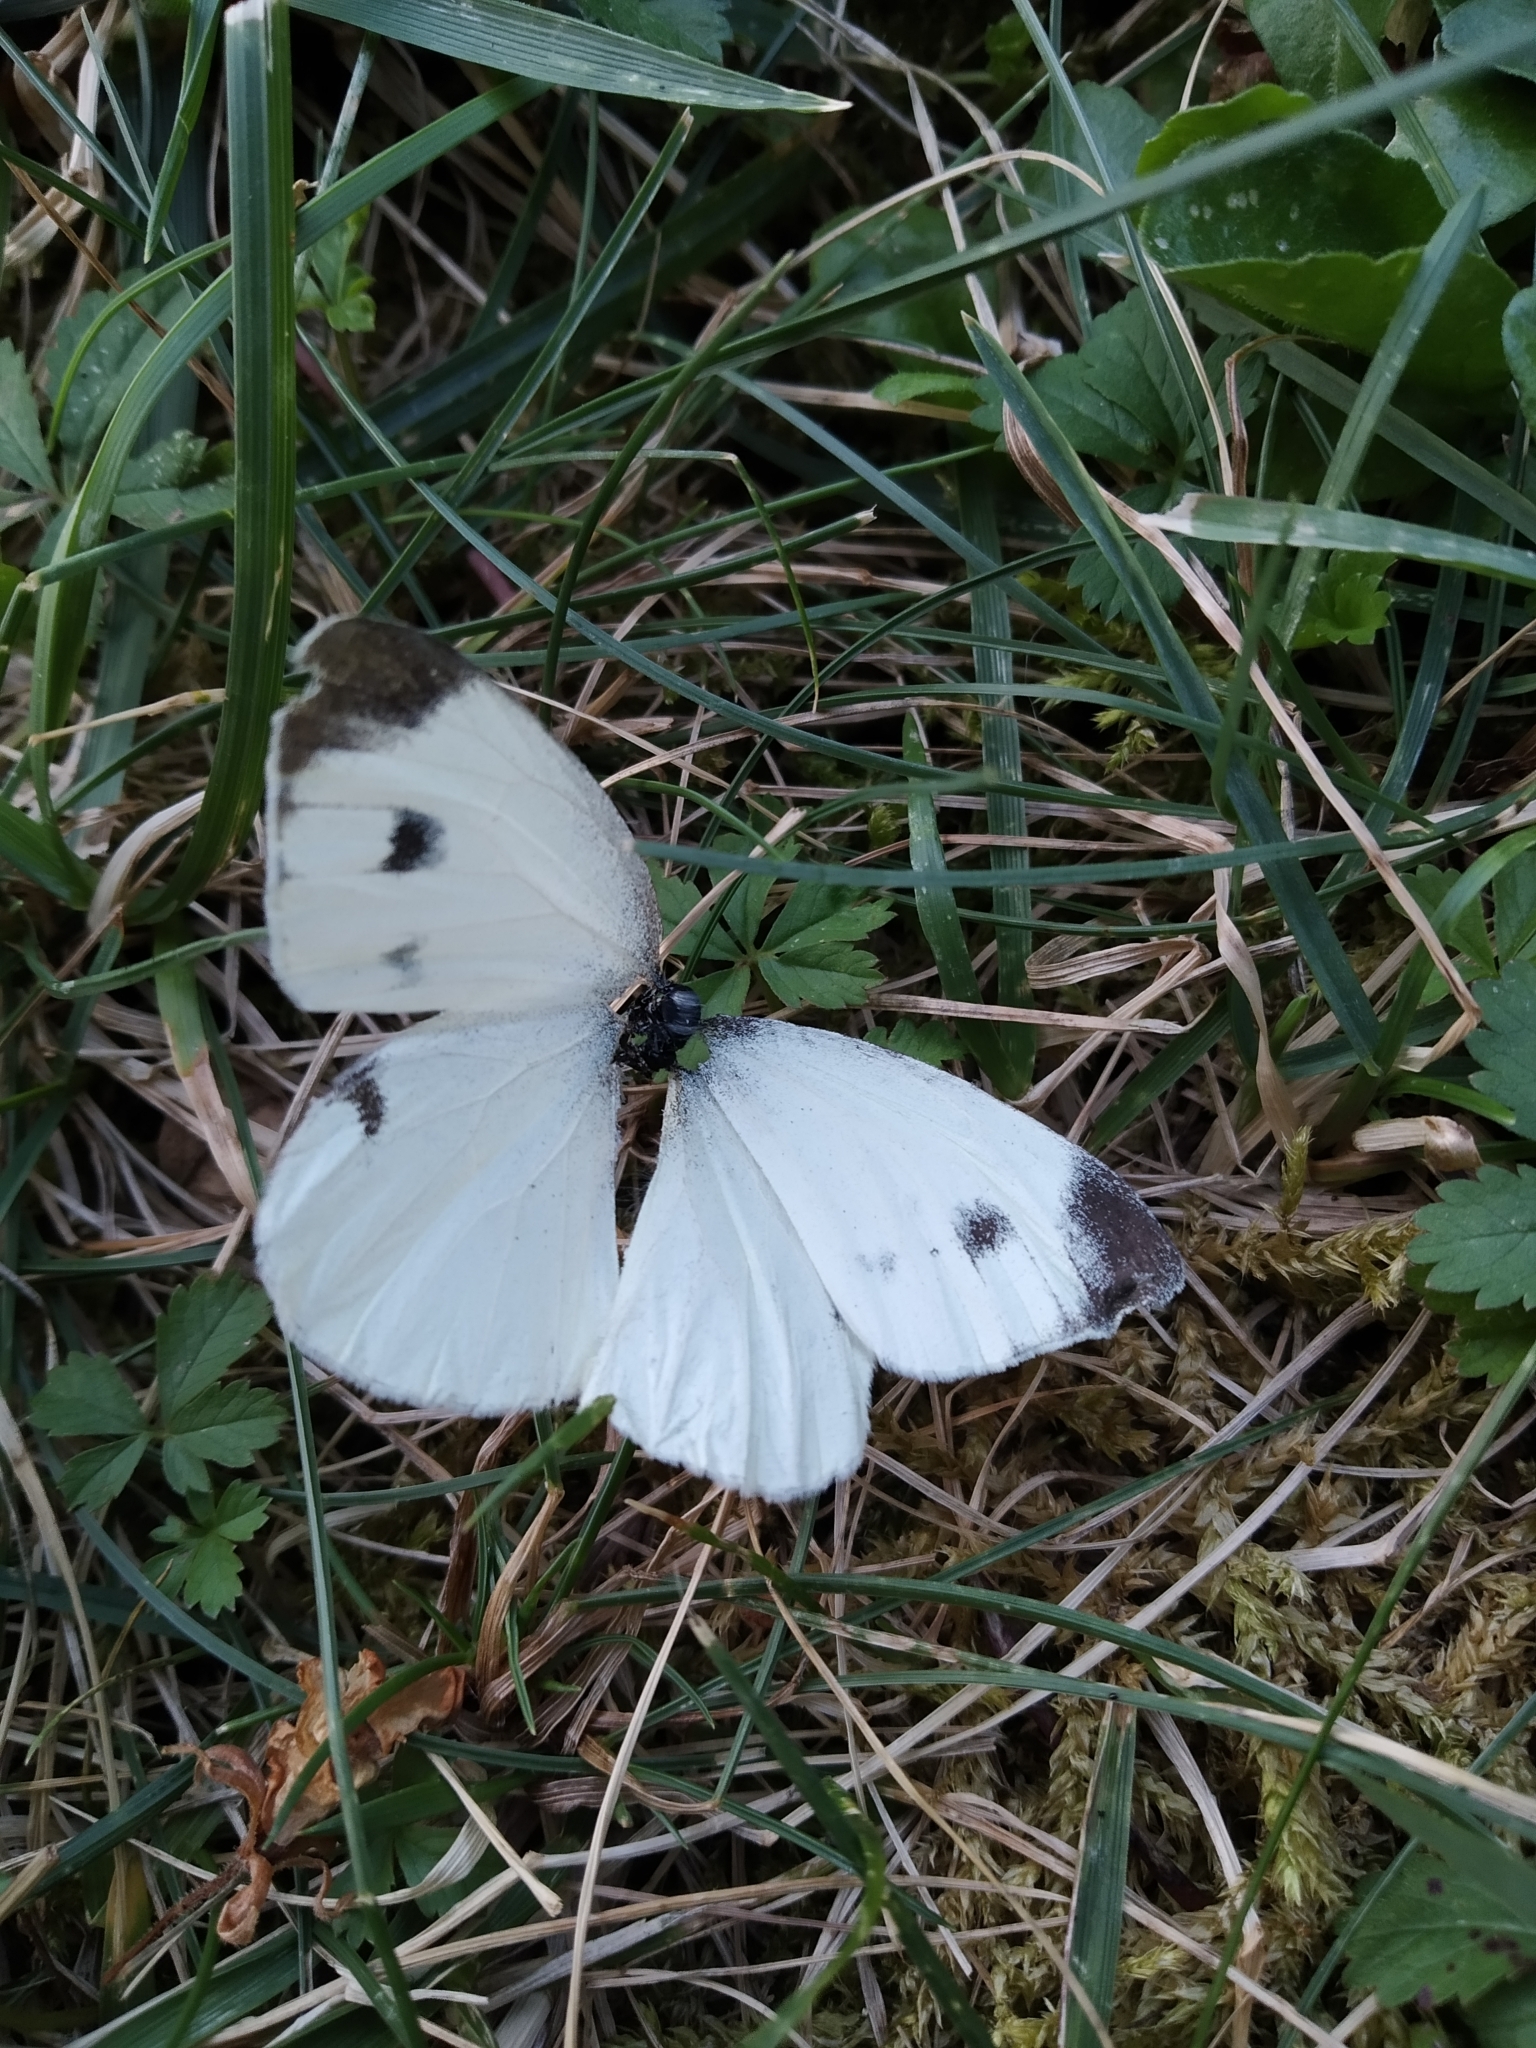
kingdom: Animalia
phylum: Arthropoda
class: Insecta
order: Lepidoptera
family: Pieridae
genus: Pieris
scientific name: Pieris mannii
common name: Southern small white
